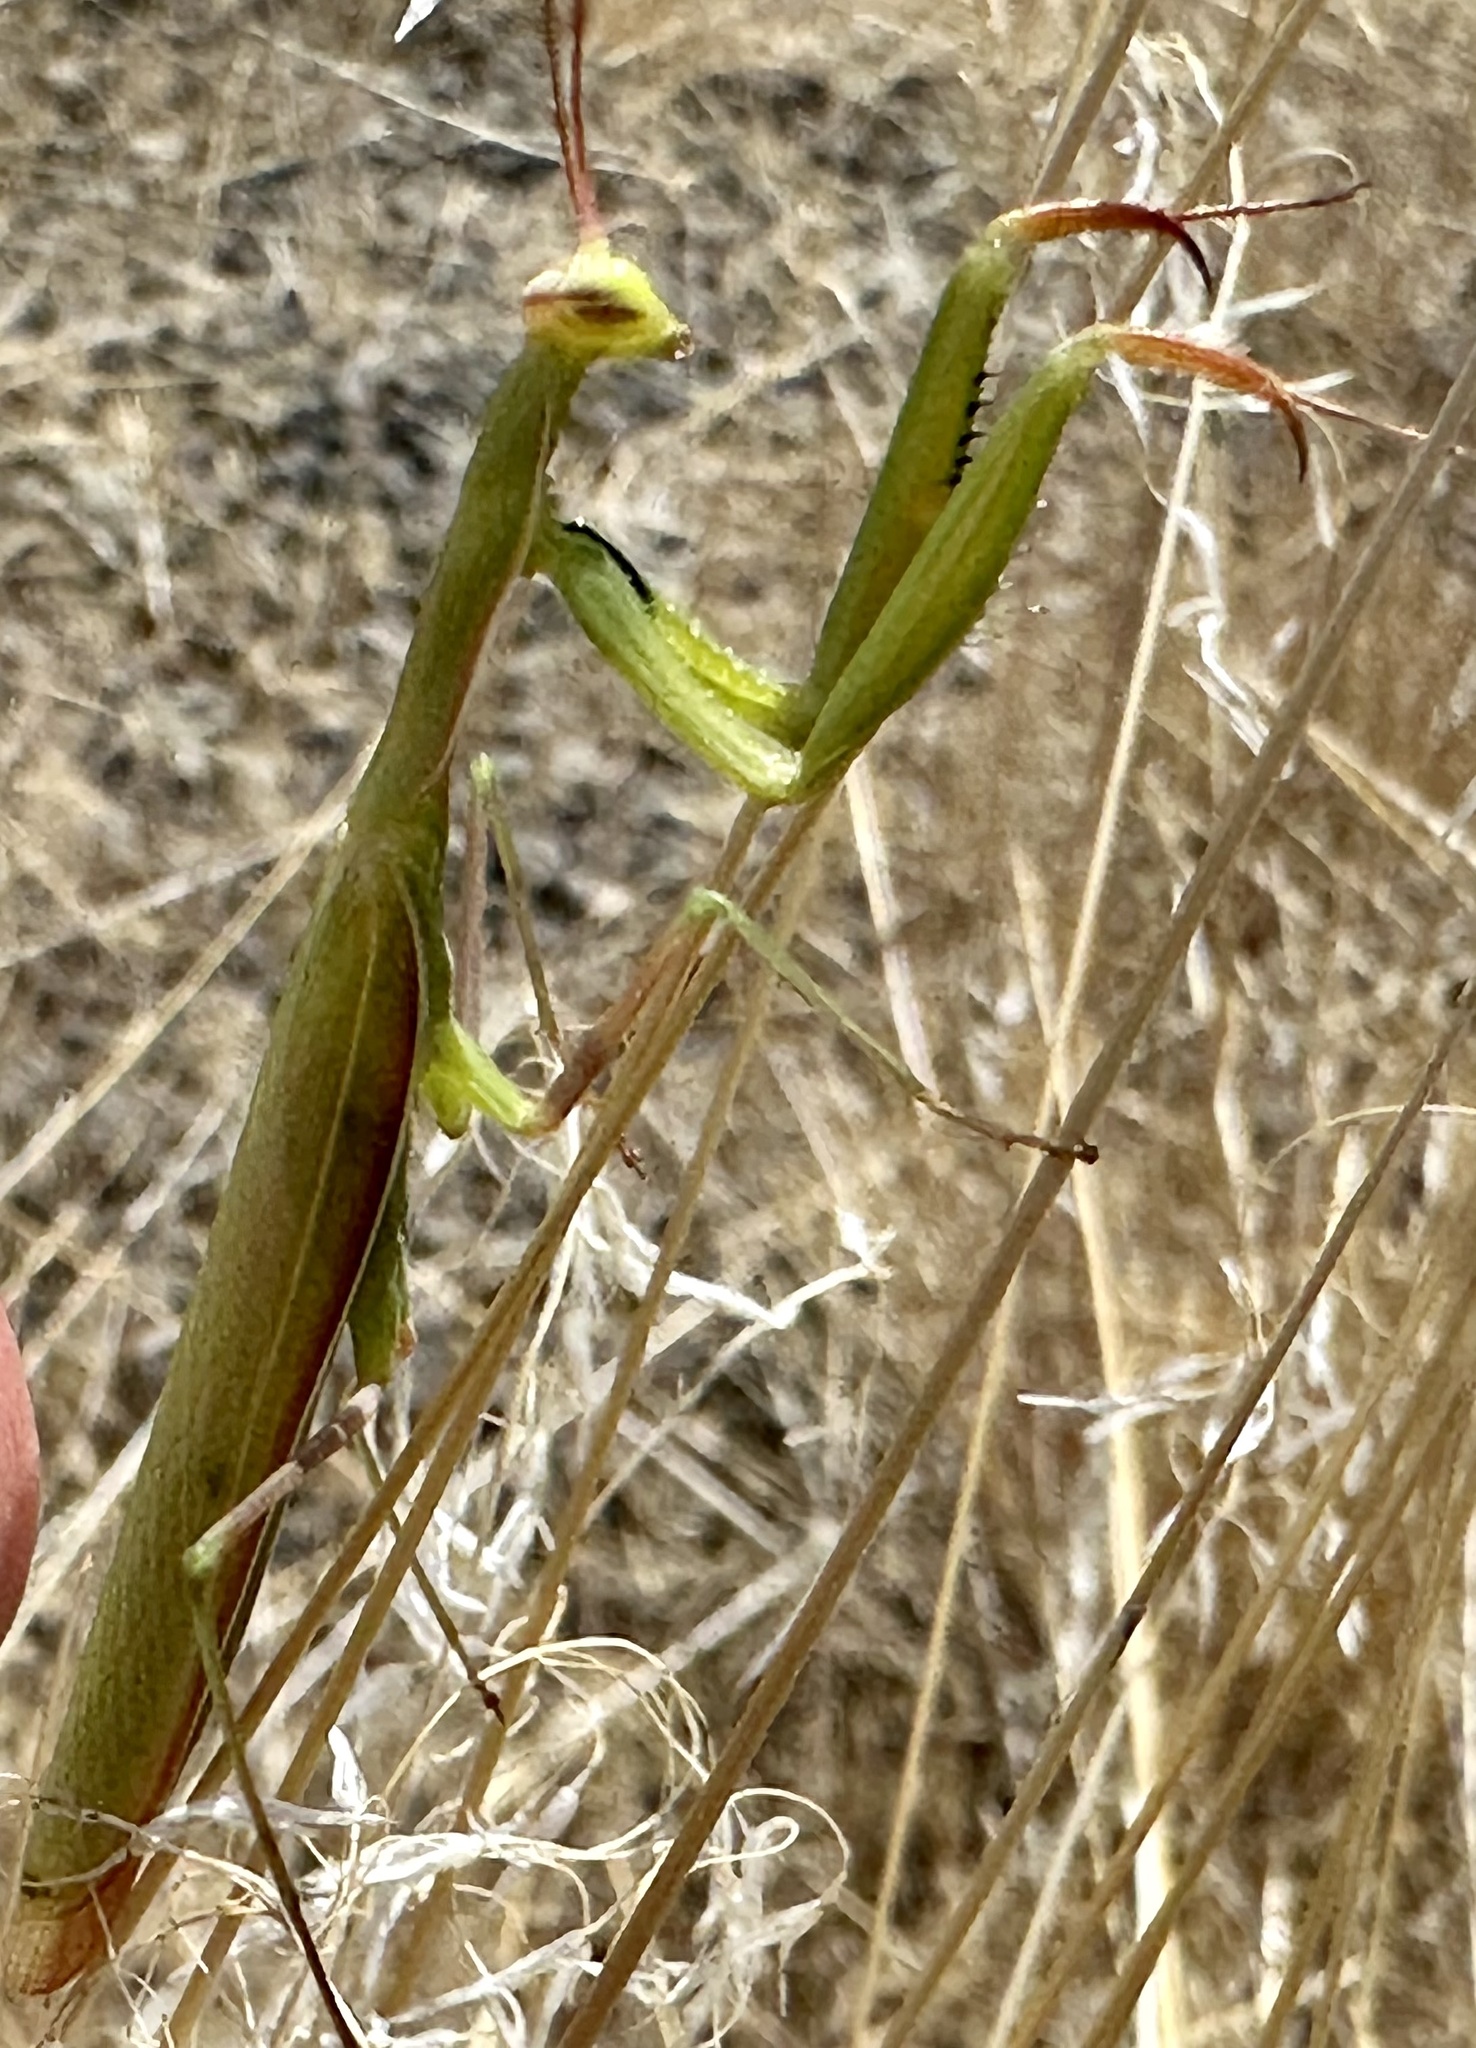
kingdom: Animalia
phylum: Arthropoda
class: Insecta
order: Mantodea
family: Mantidae
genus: Mantis
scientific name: Mantis religiosa
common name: Praying mantis
